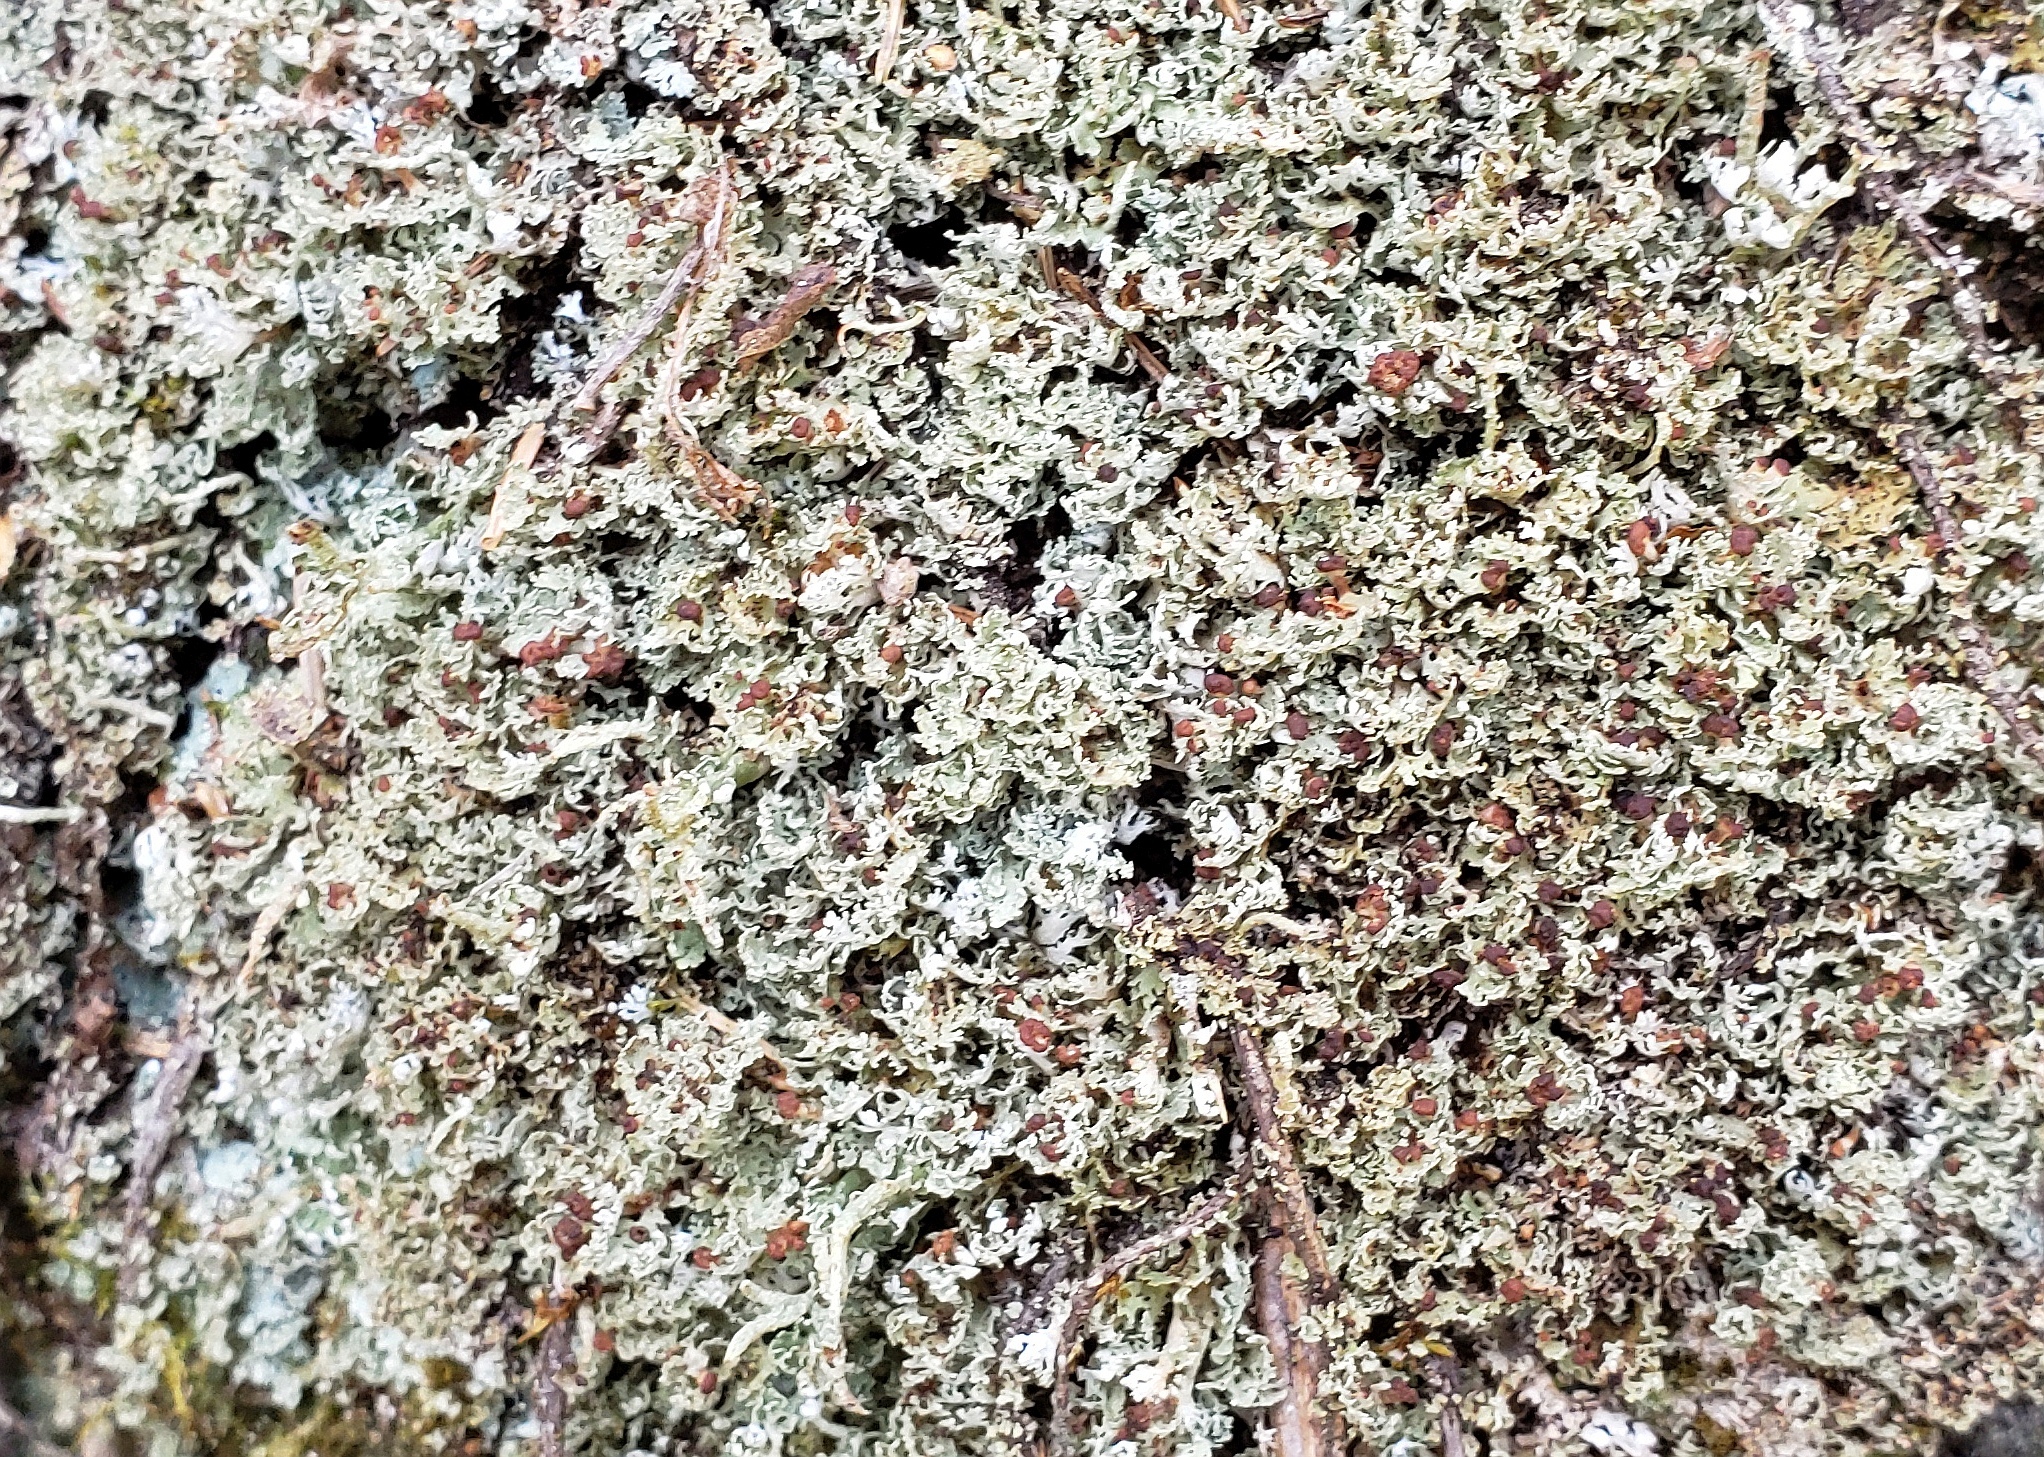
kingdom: Fungi
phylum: Ascomycota
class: Lecanoromycetes
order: Lecanorales
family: Cladoniaceae
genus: Cladonia
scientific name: Cladonia caespiticia
